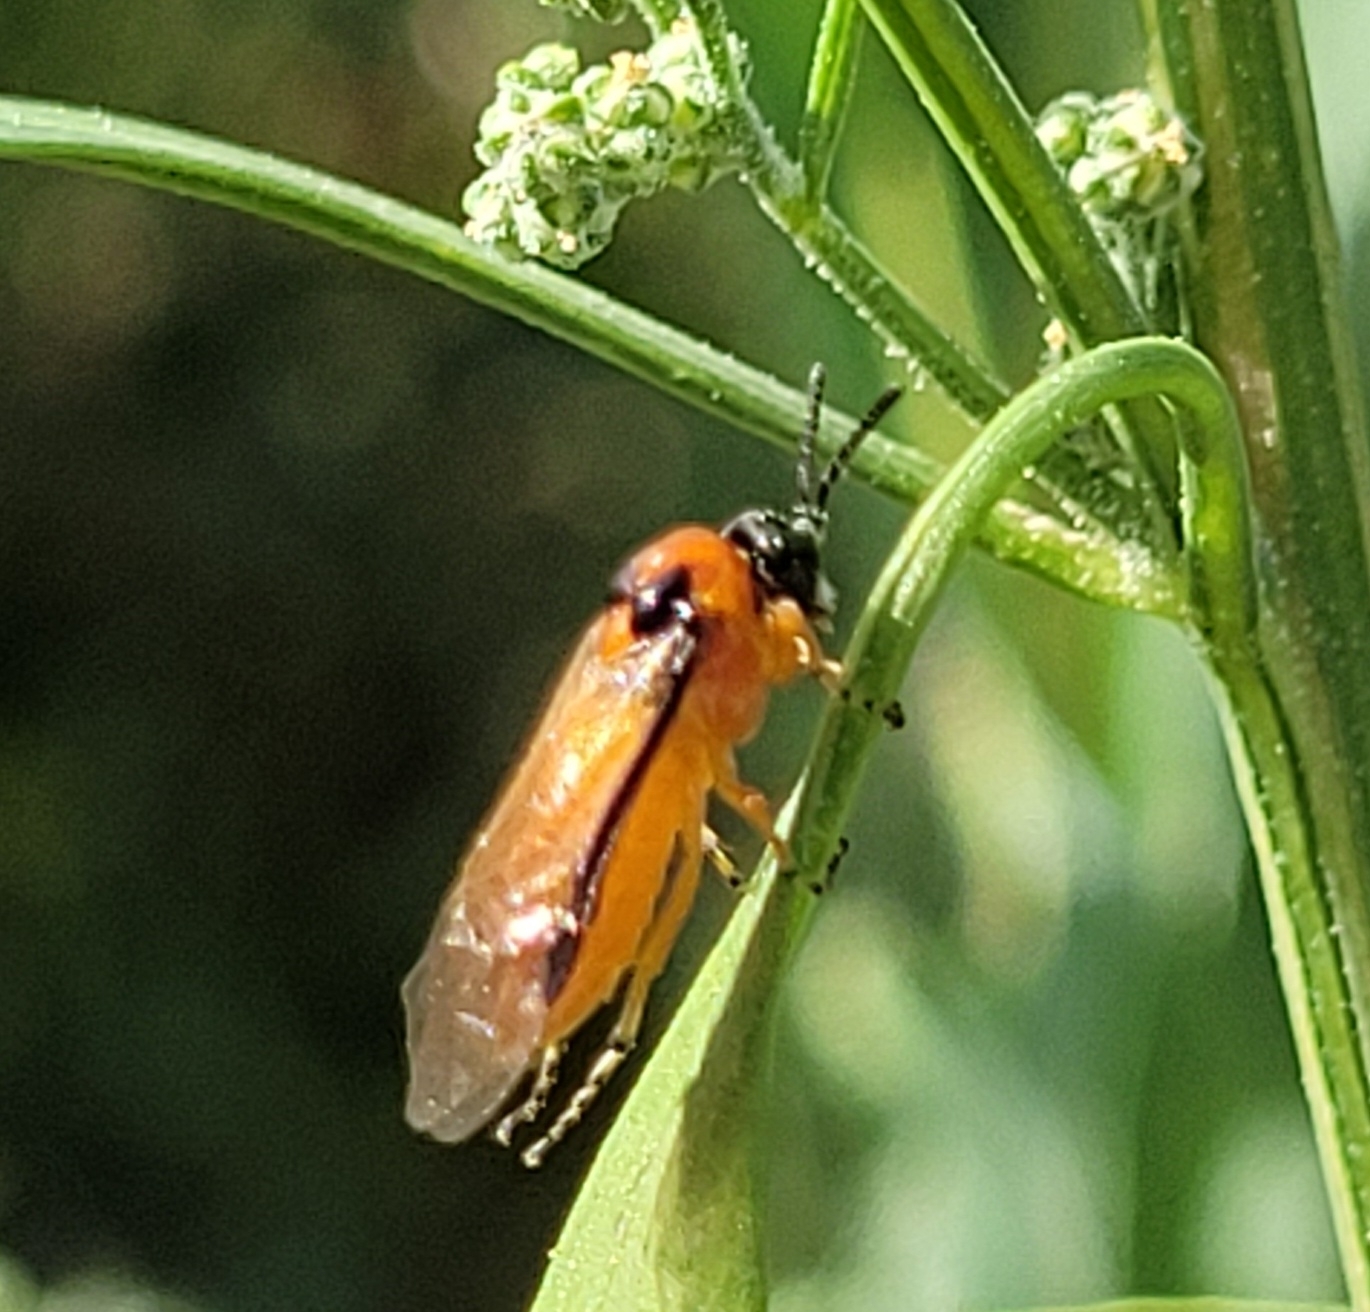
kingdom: Animalia
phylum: Arthropoda
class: Insecta
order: Hymenoptera
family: Tenthredinidae
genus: Athalia
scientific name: Athalia rosae
